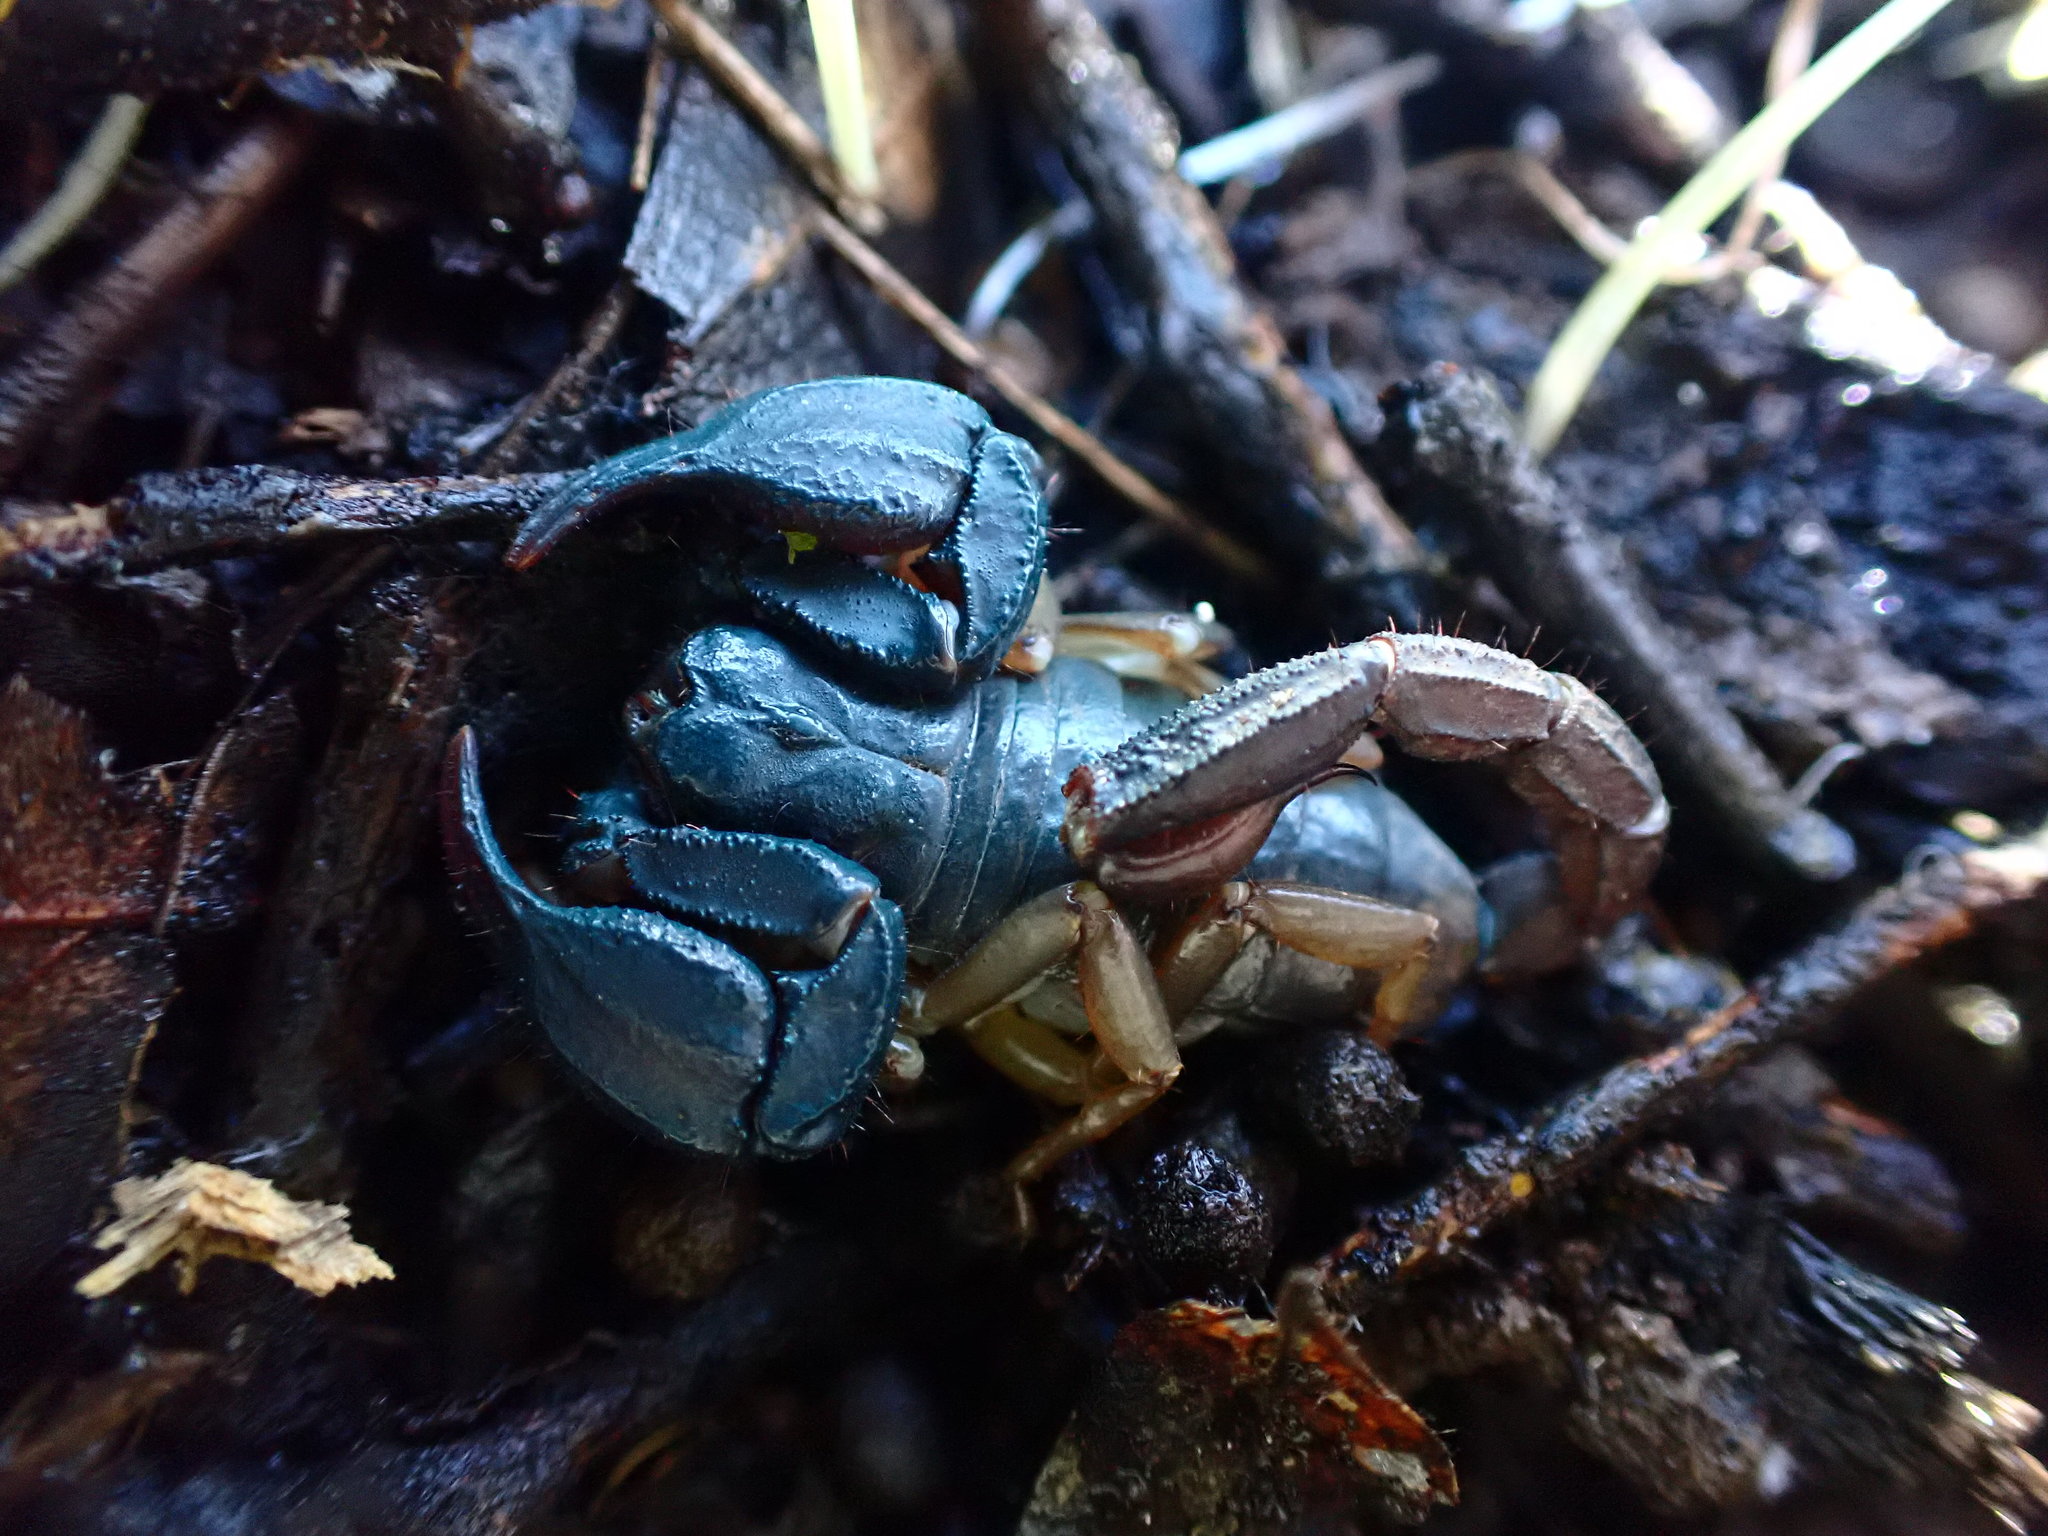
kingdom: Animalia
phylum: Arthropoda
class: Arachnida
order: Scorpiones
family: Chactidae
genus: Uroctonus
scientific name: Uroctonus mordax
